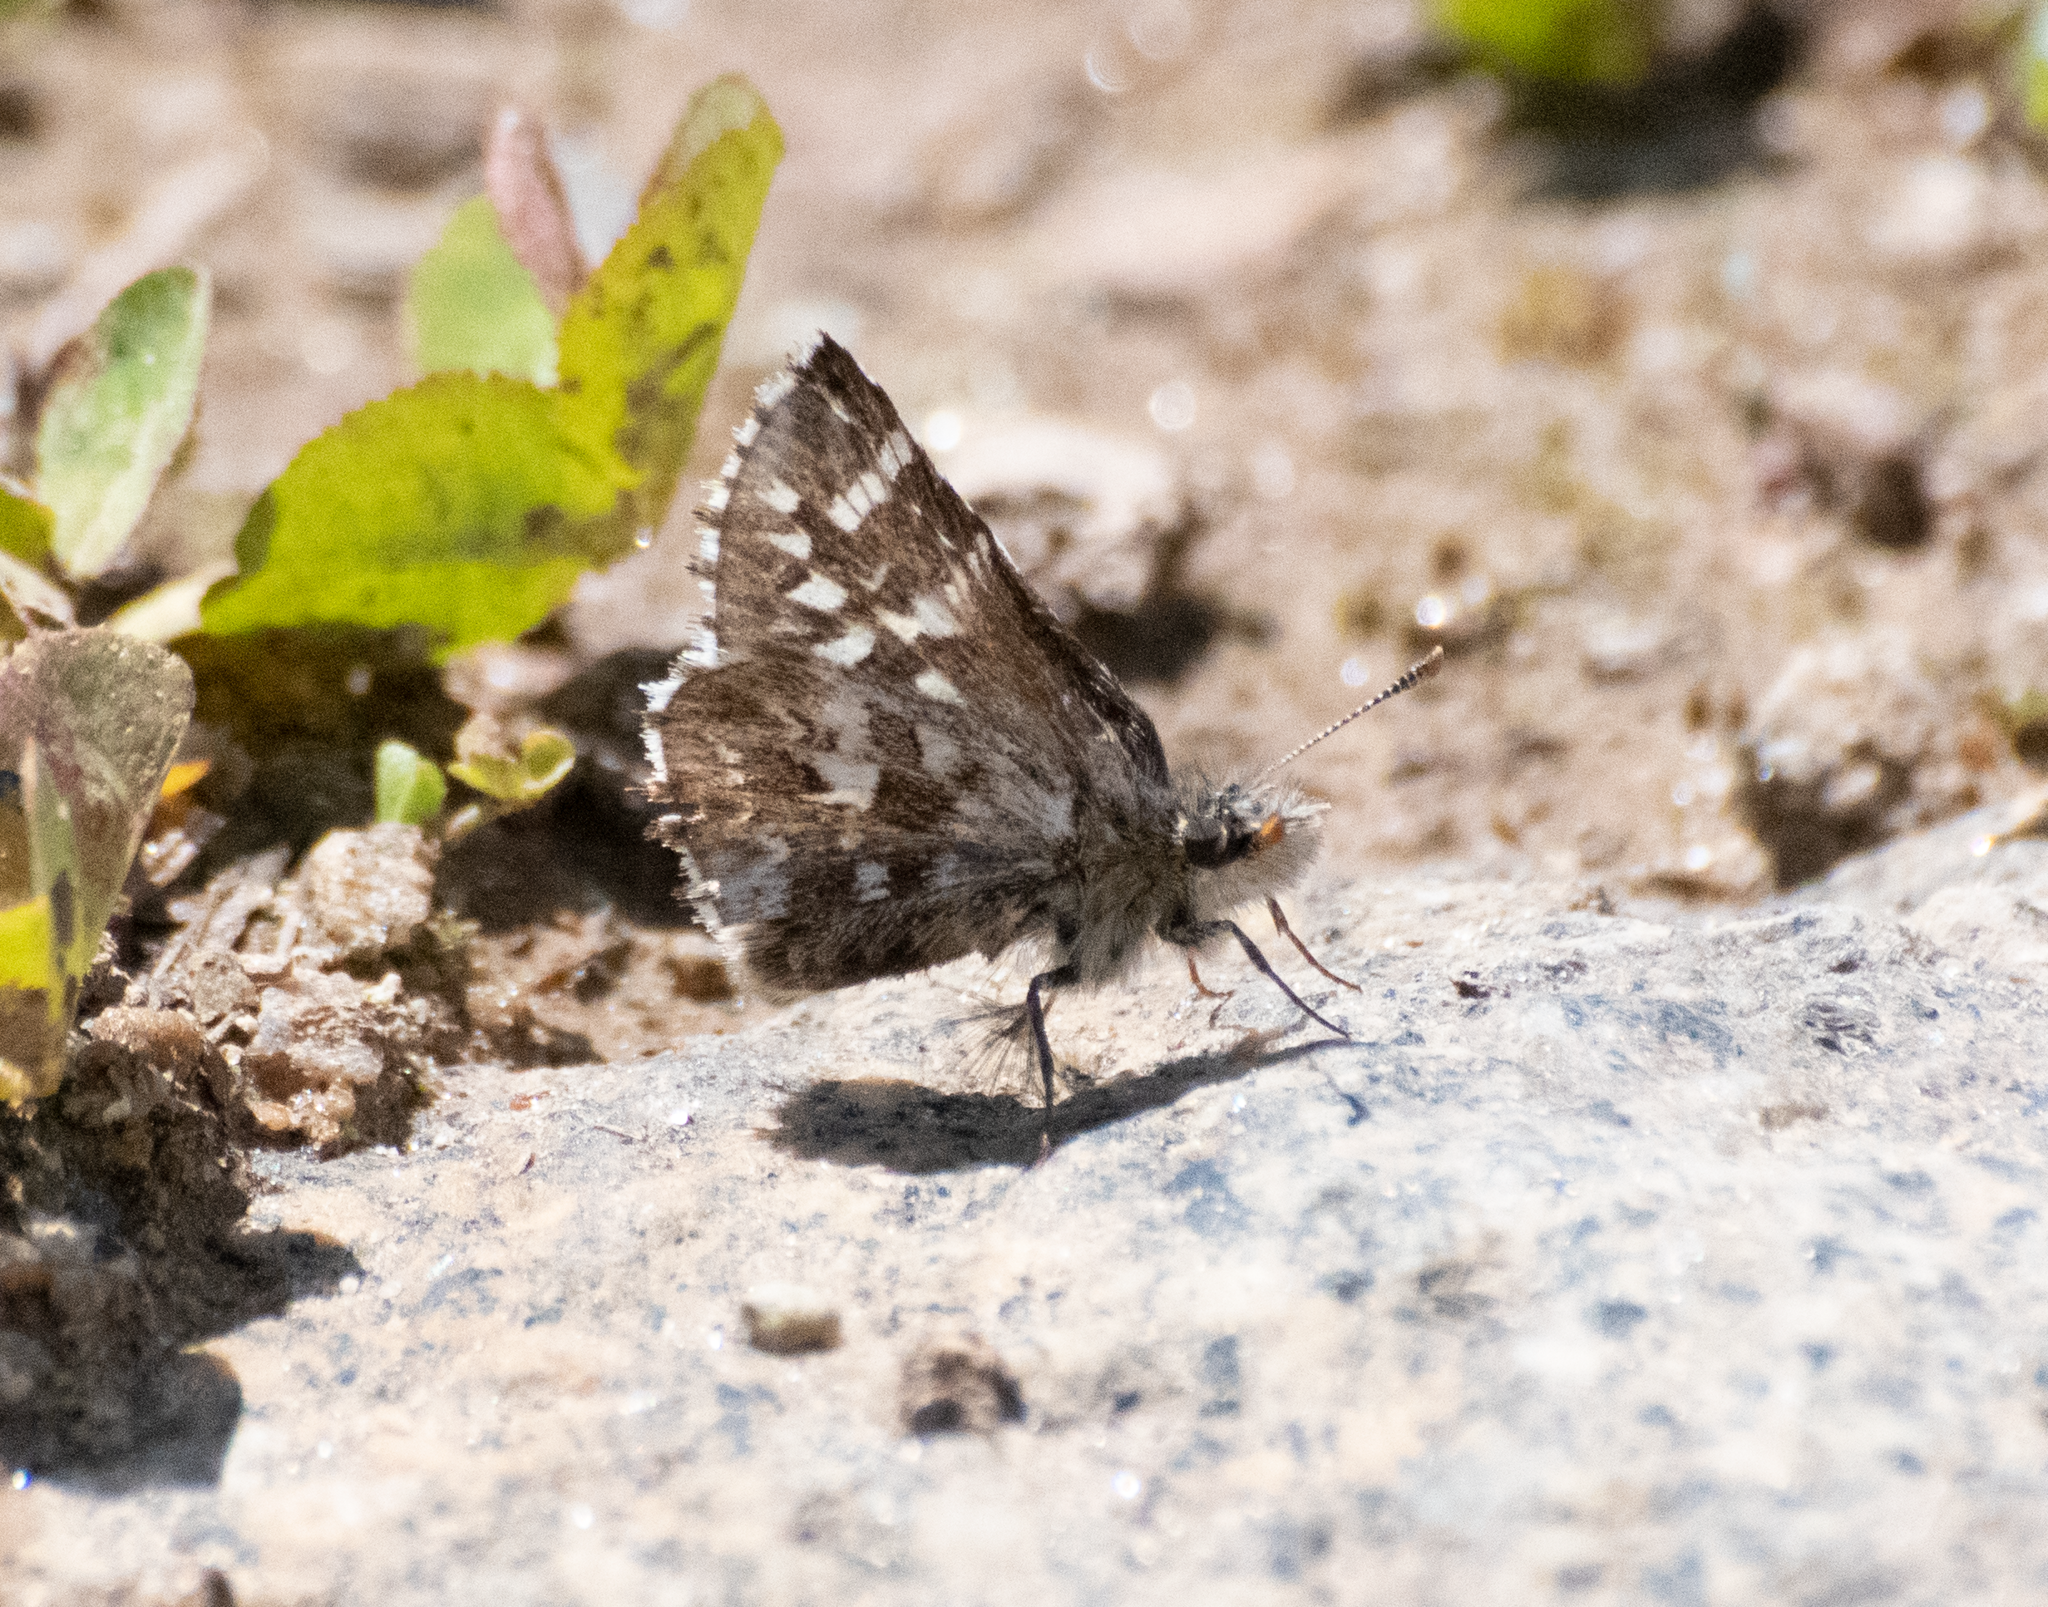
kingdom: Animalia
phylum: Arthropoda
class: Insecta
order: Lepidoptera
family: Hesperiidae
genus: Pyrgus
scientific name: Pyrgus ruralis
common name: Two-banded checkered-skipper
